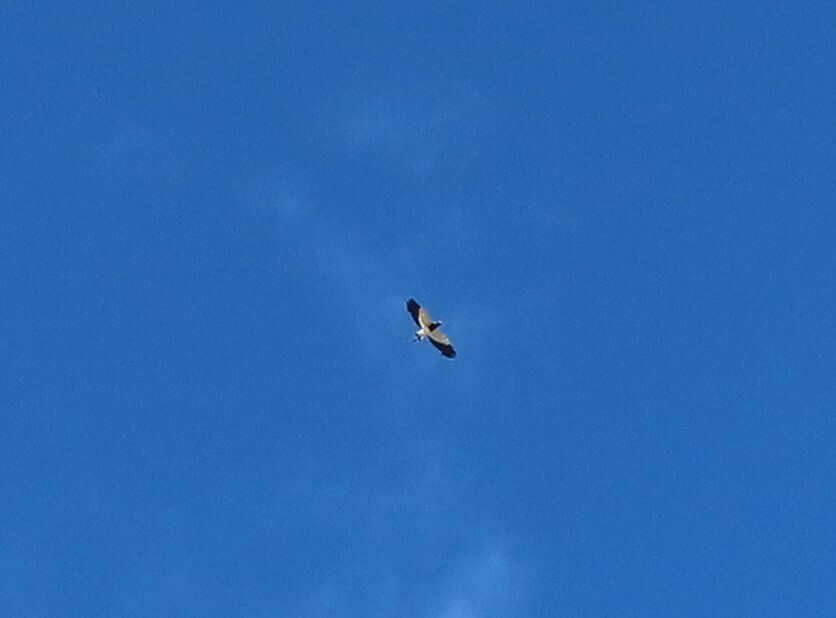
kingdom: Animalia
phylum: Chordata
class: Aves
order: Charadriiformes
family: Charadriidae
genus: Vanellus
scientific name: Vanellus armatus
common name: Blacksmith lapwing
